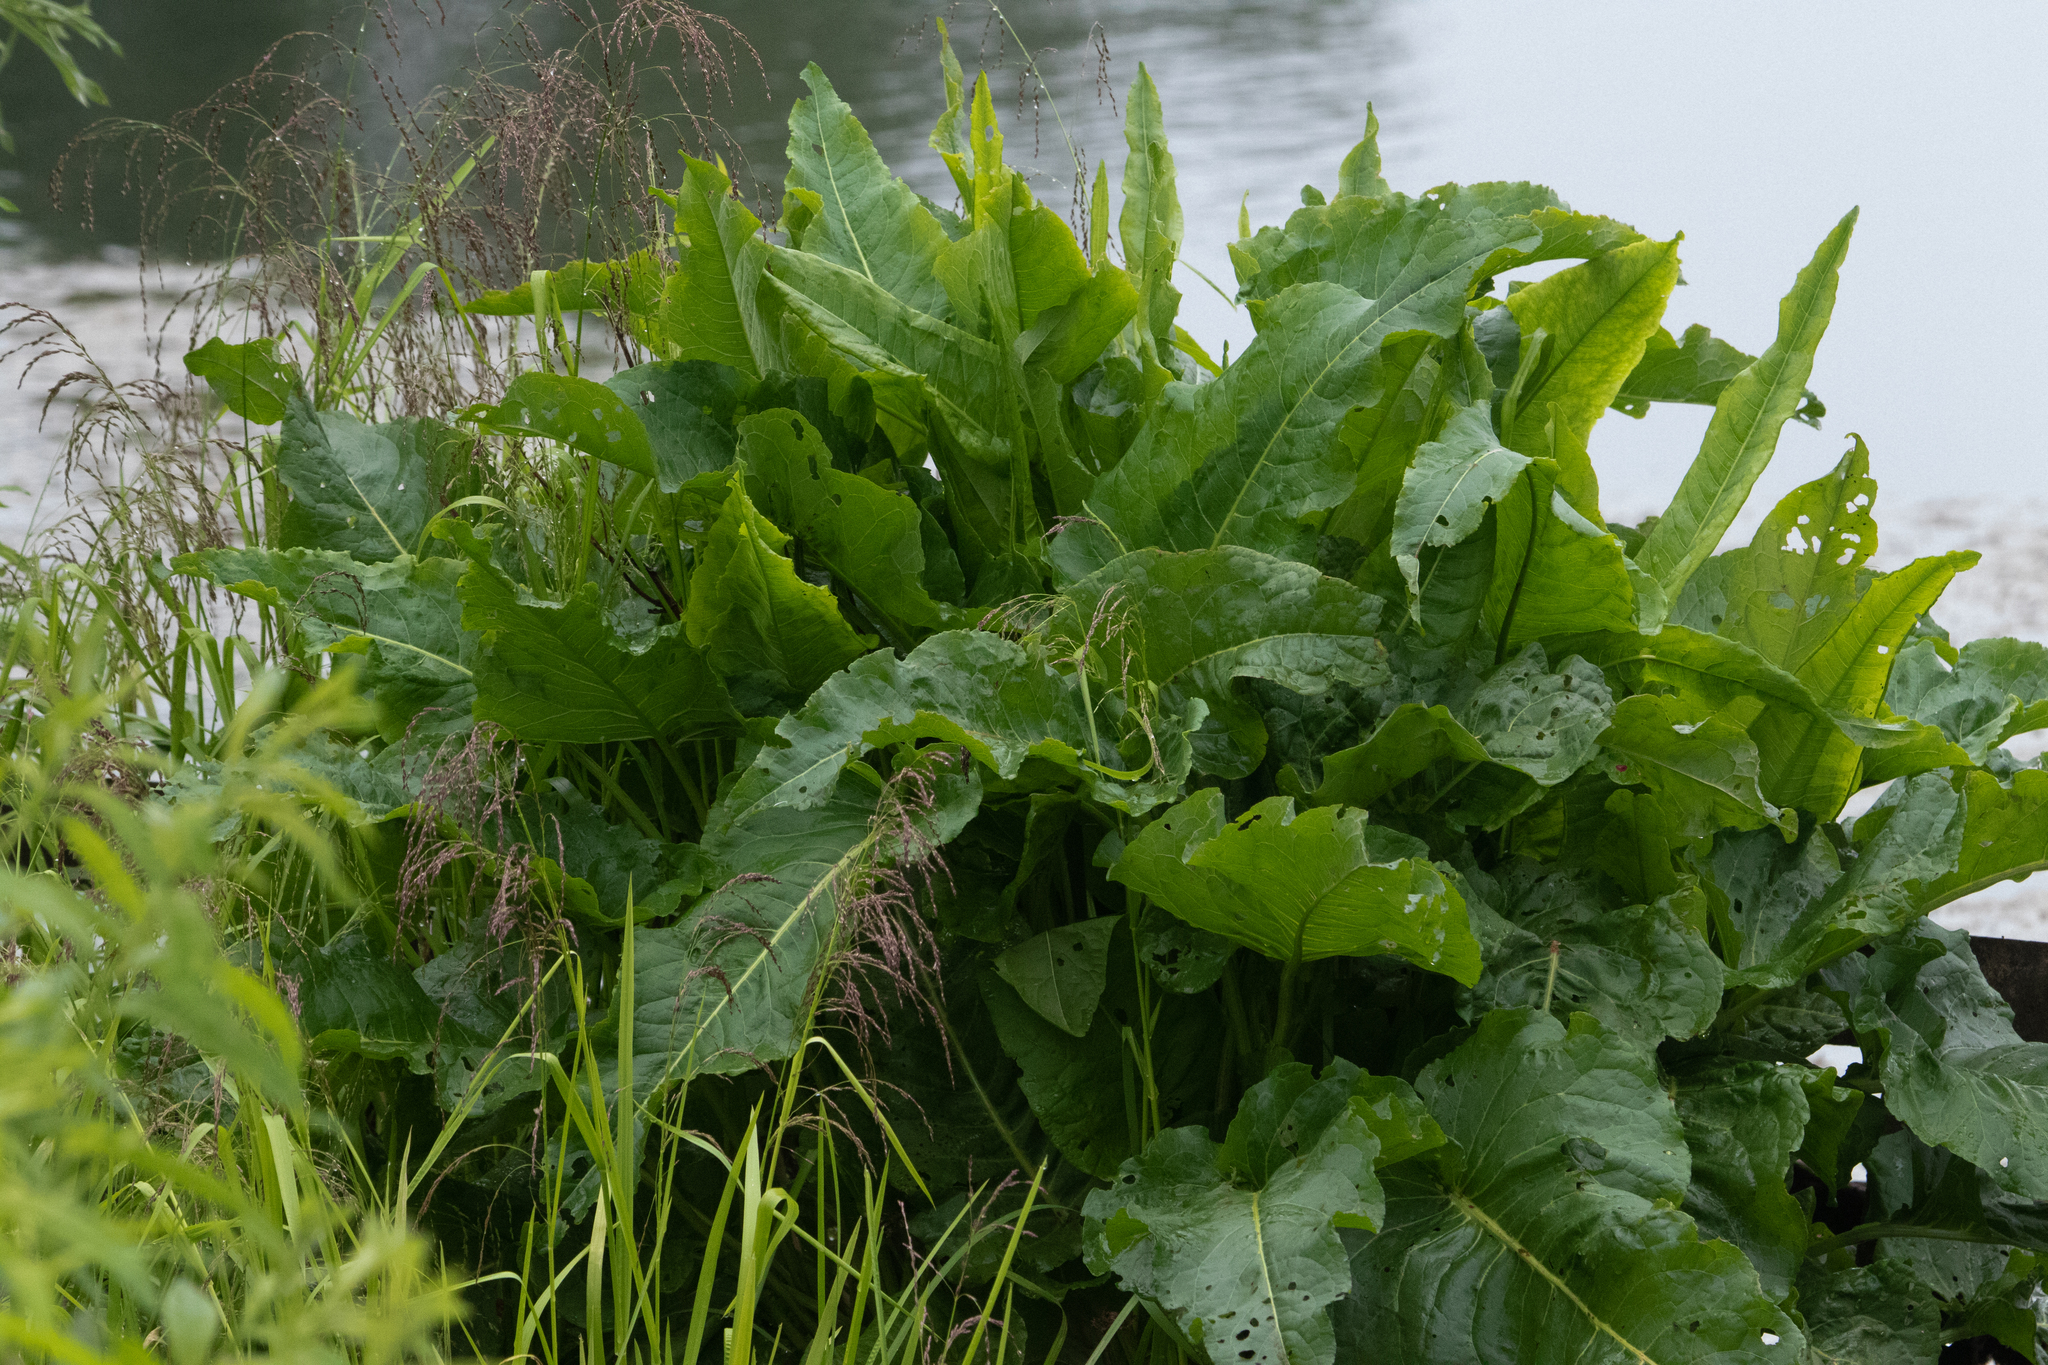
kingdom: Plantae
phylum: Tracheophyta
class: Magnoliopsida
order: Caryophyllales
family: Polygonaceae
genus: Rumex
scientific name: Rumex aquaticus
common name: Scottish dock
